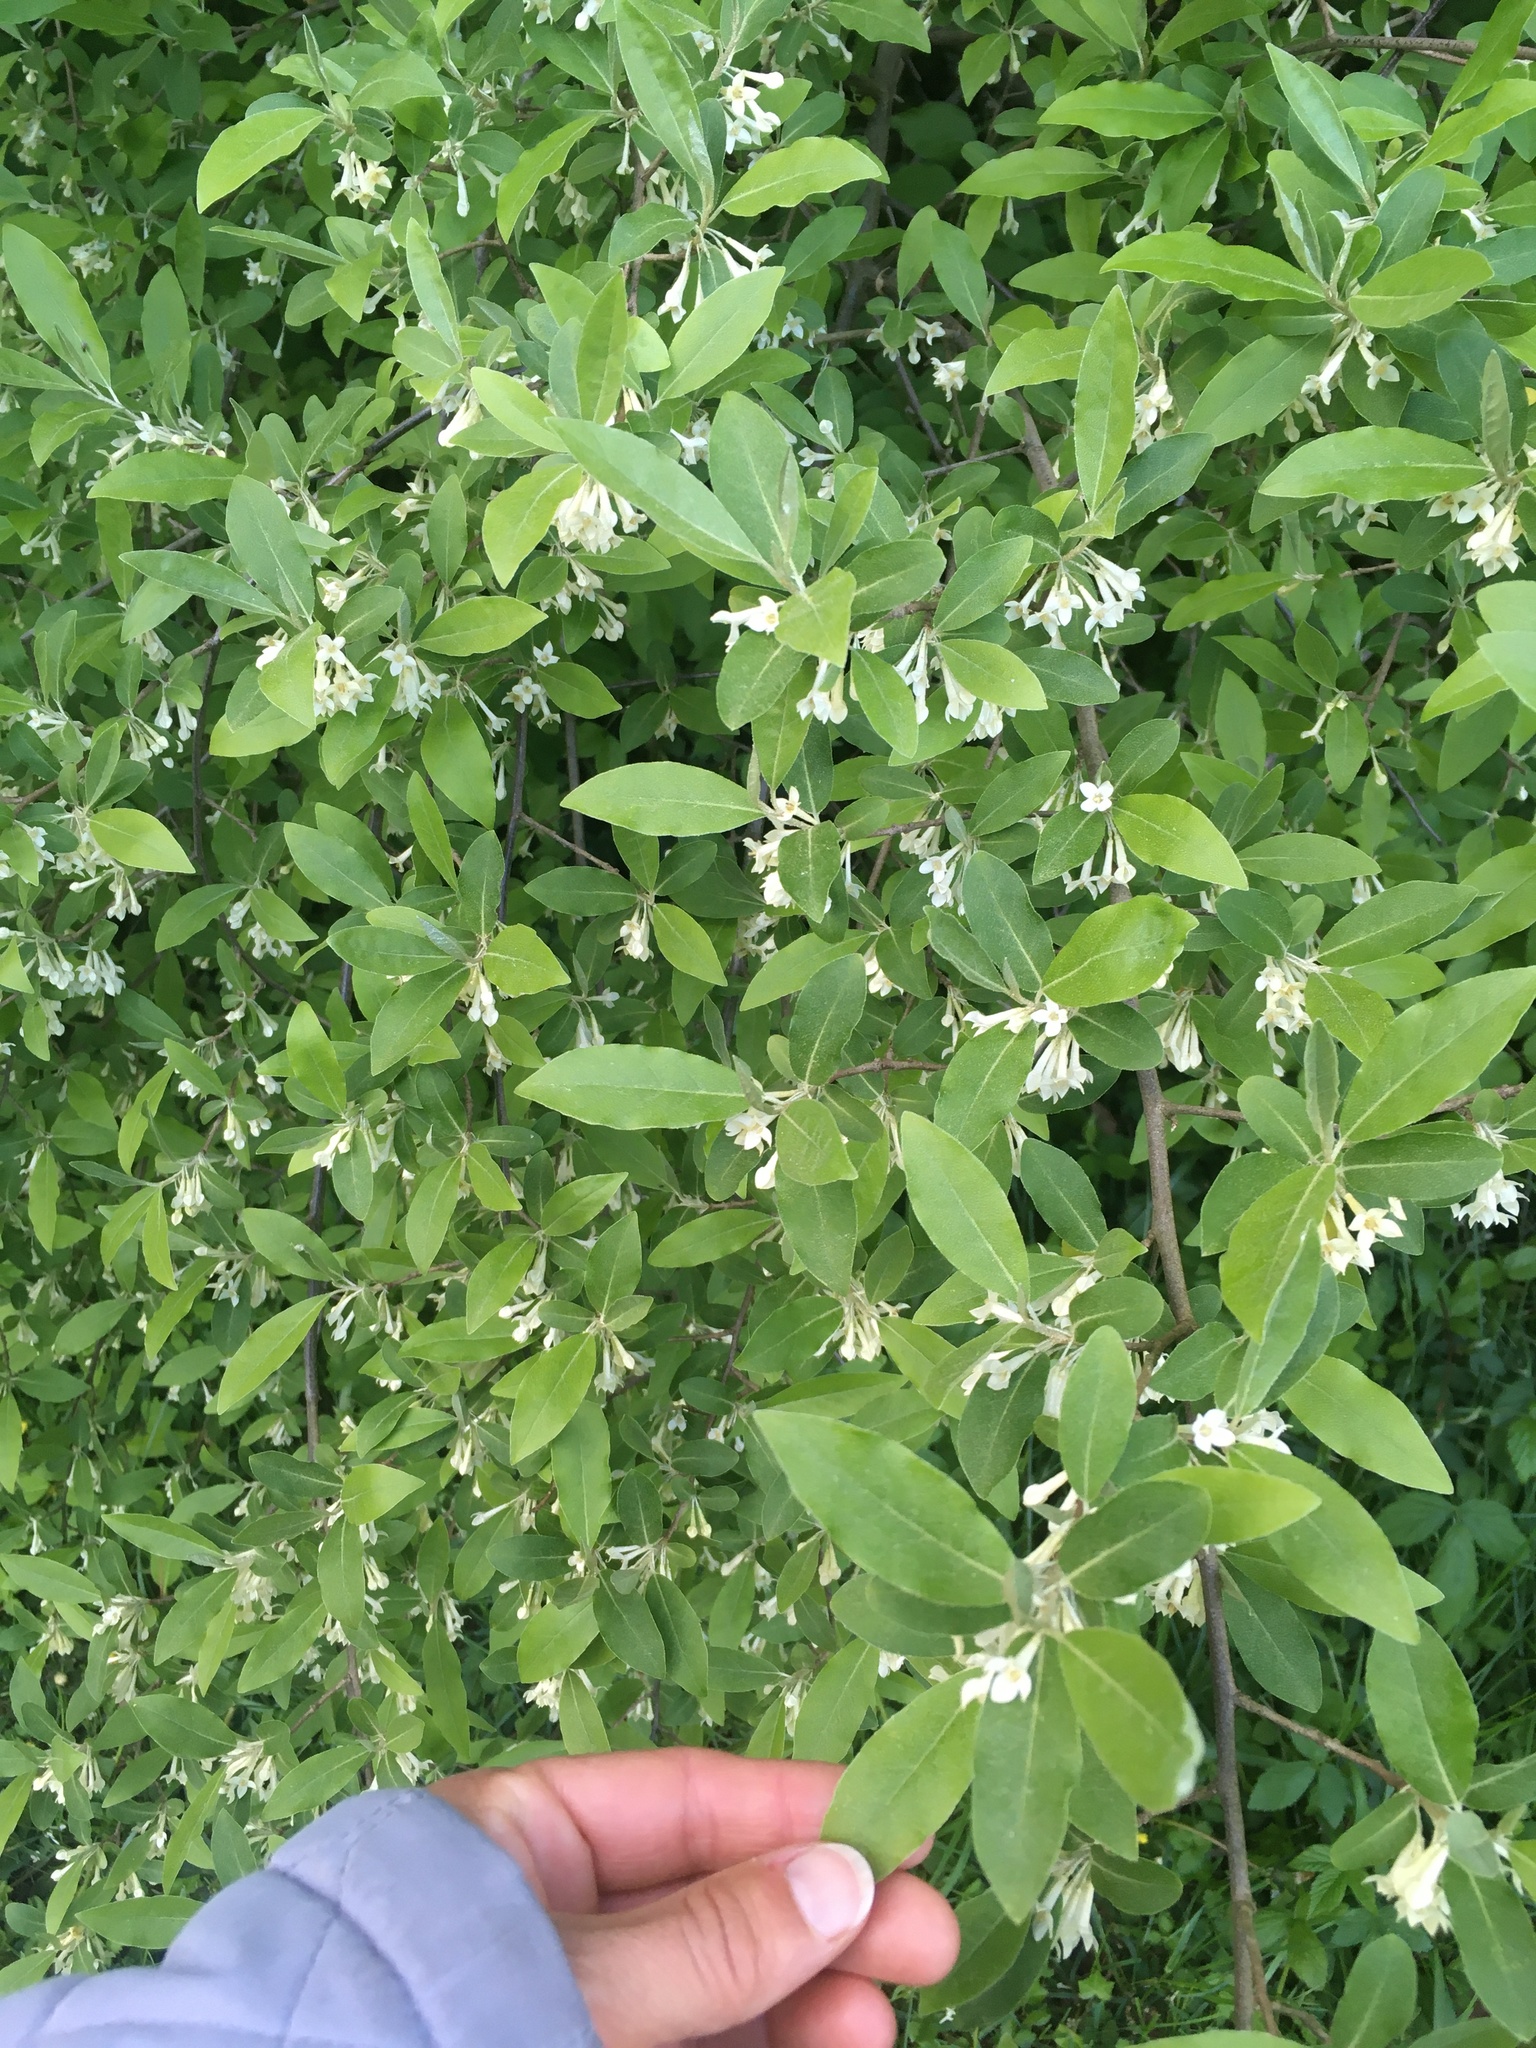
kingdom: Plantae
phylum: Tracheophyta
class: Magnoliopsida
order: Rosales
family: Elaeagnaceae
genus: Elaeagnus
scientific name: Elaeagnus umbellata
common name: Autumn olive
